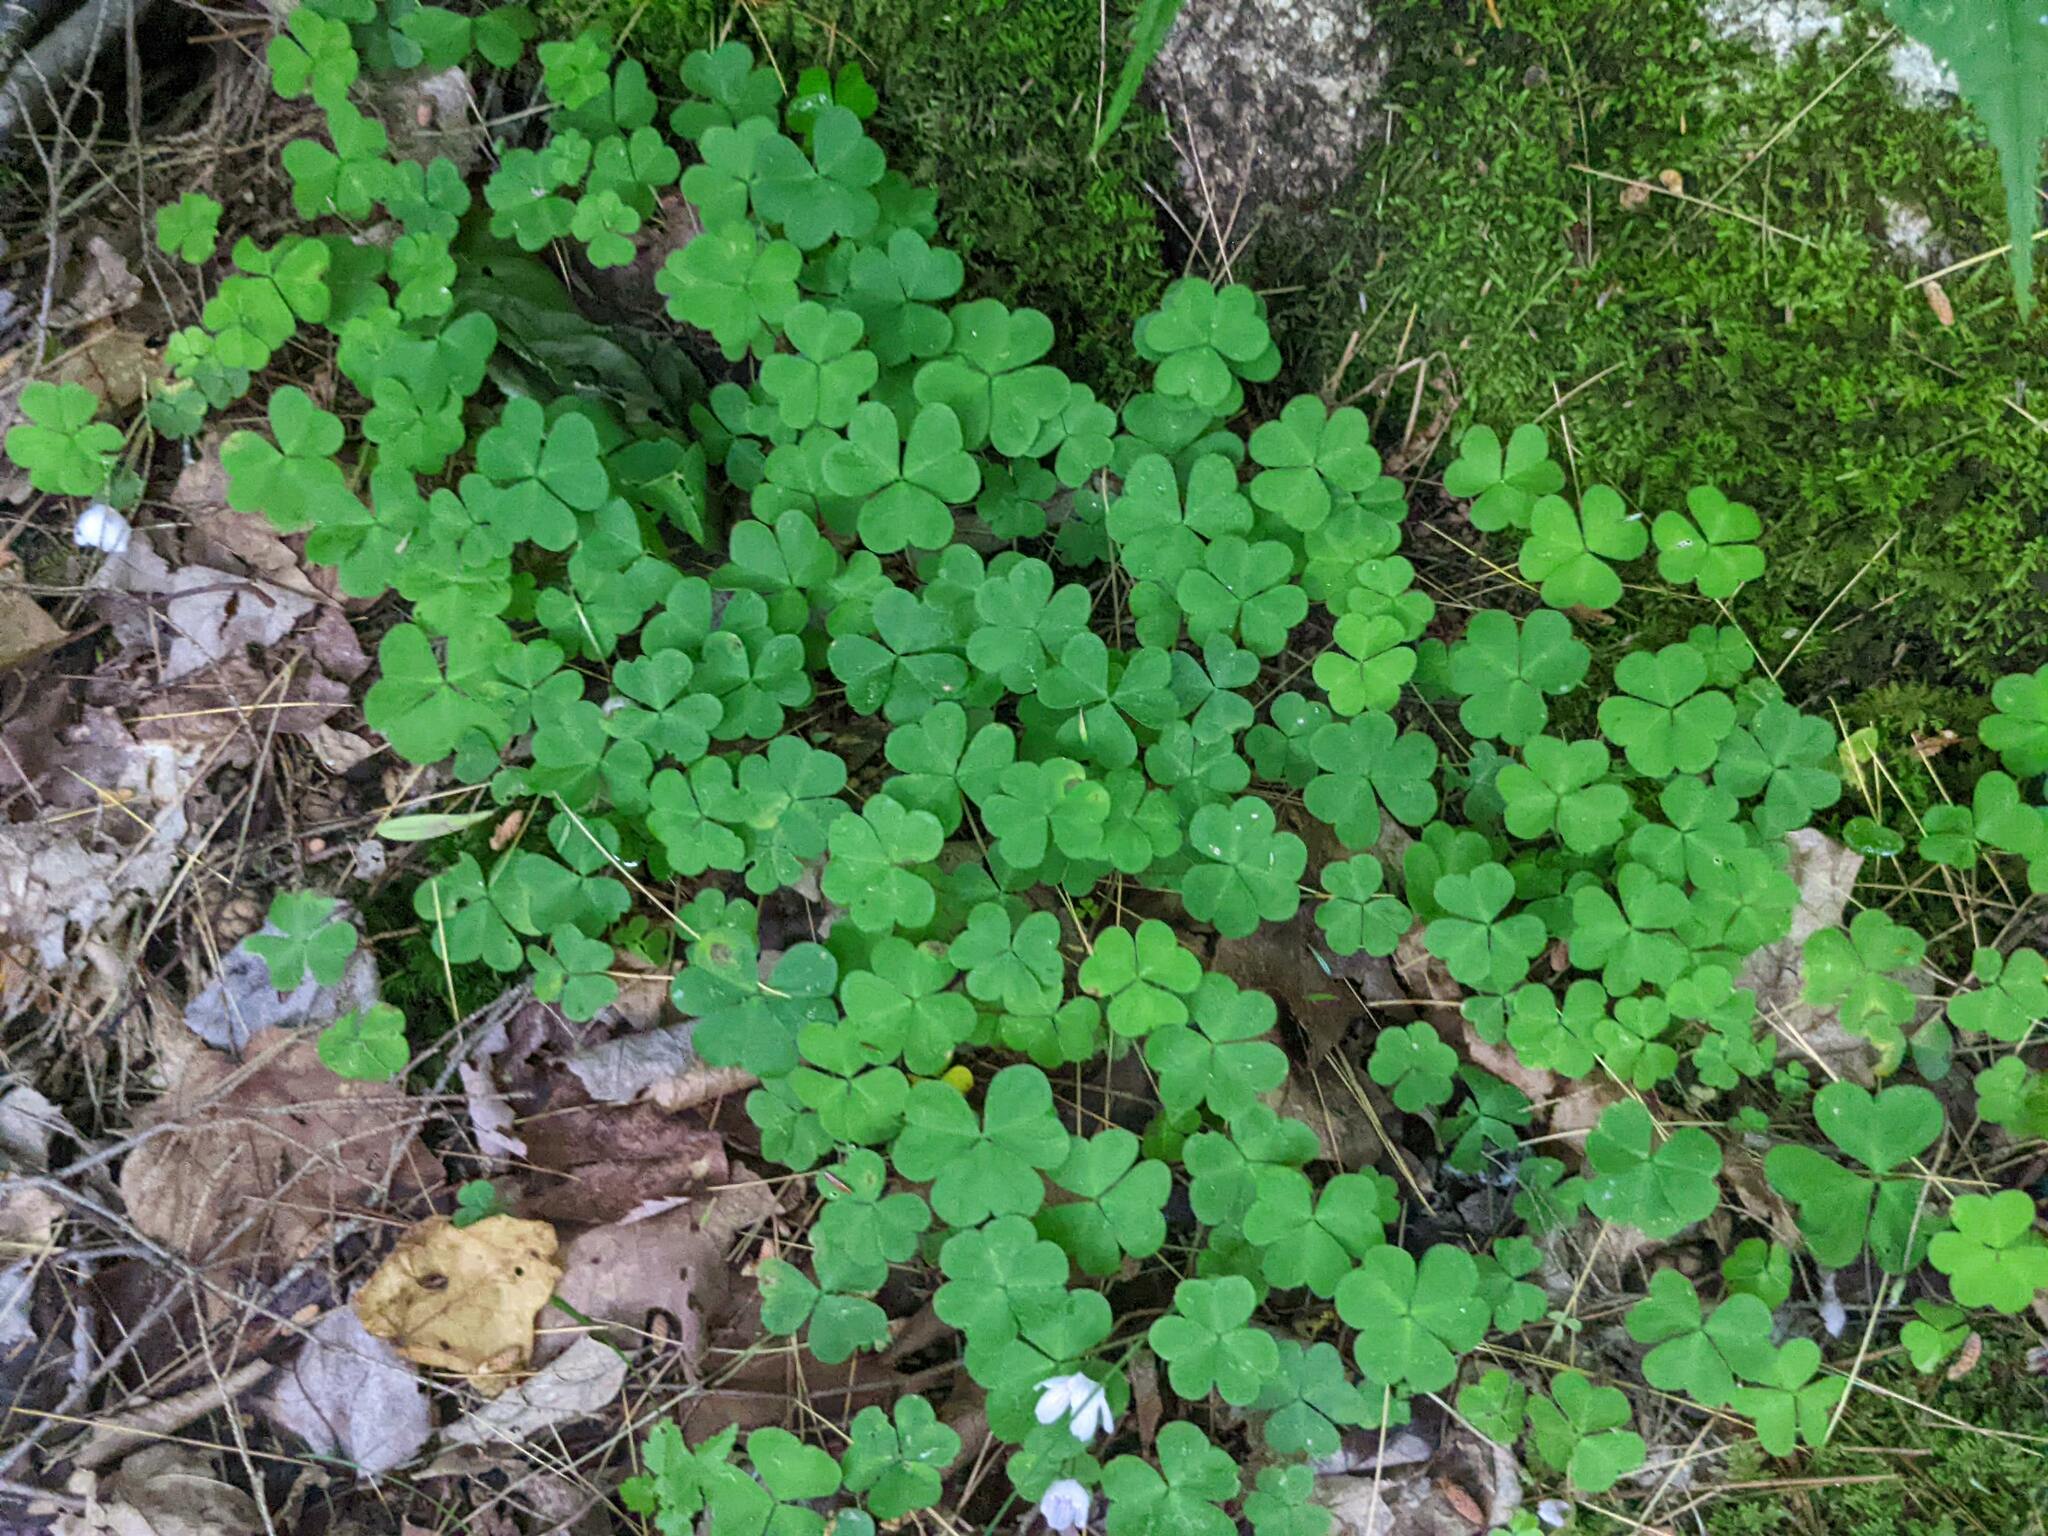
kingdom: Plantae
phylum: Tracheophyta
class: Magnoliopsida
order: Oxalidales
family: Oxalidaceae
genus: Oxalis
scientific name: Oxalis montana
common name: American wood-sorrel
